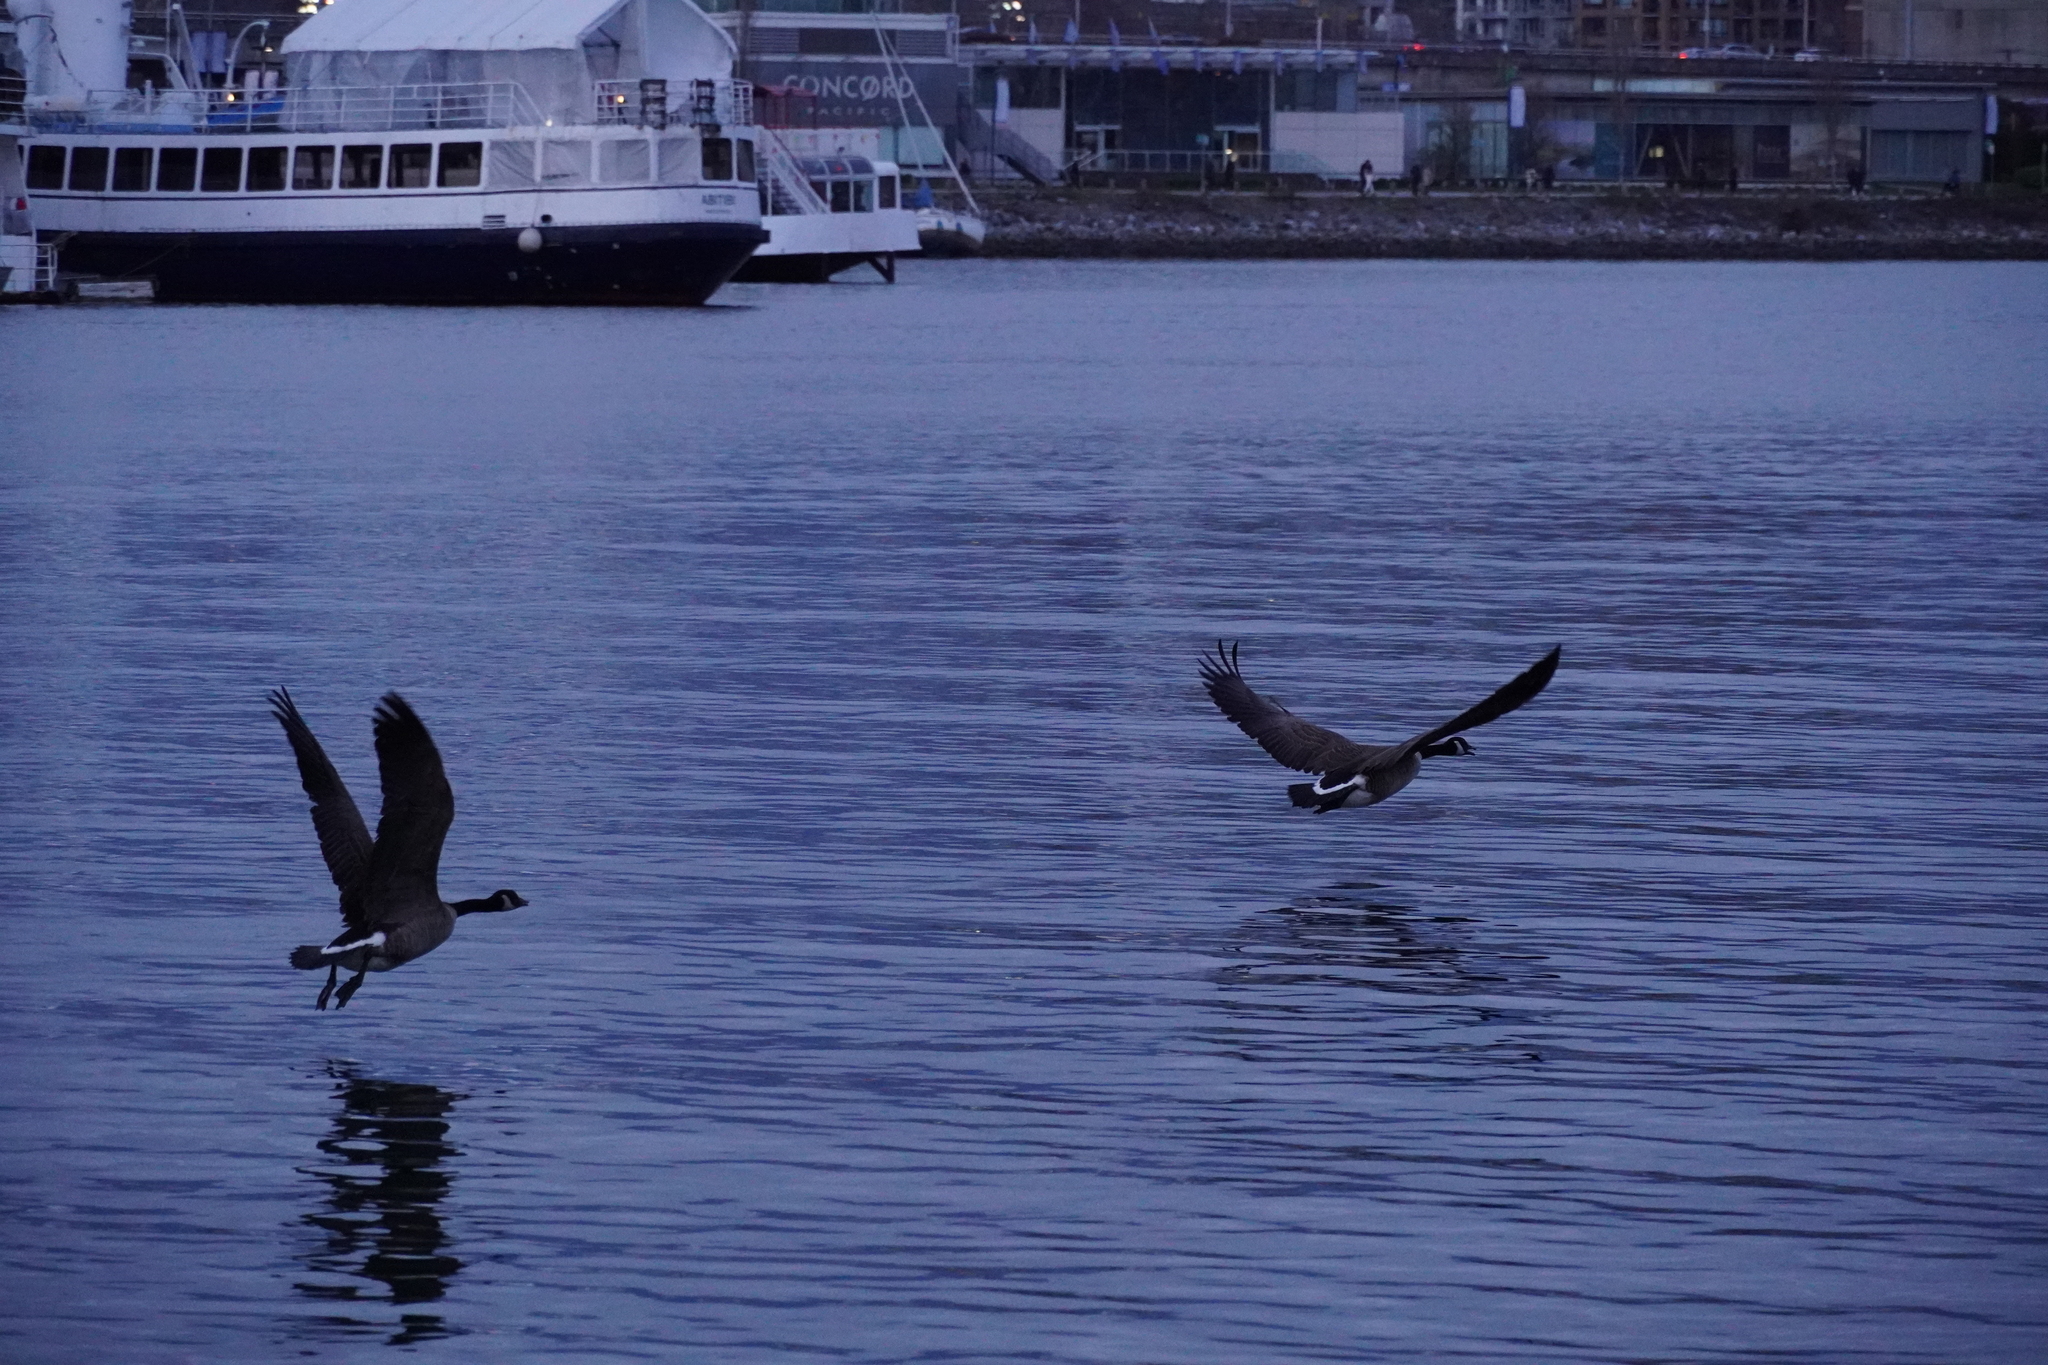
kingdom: Animalia
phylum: Chordata
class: Aves
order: Anseriformes
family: Anatidae
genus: Branta
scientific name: Branta canadensis
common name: Canada goose
